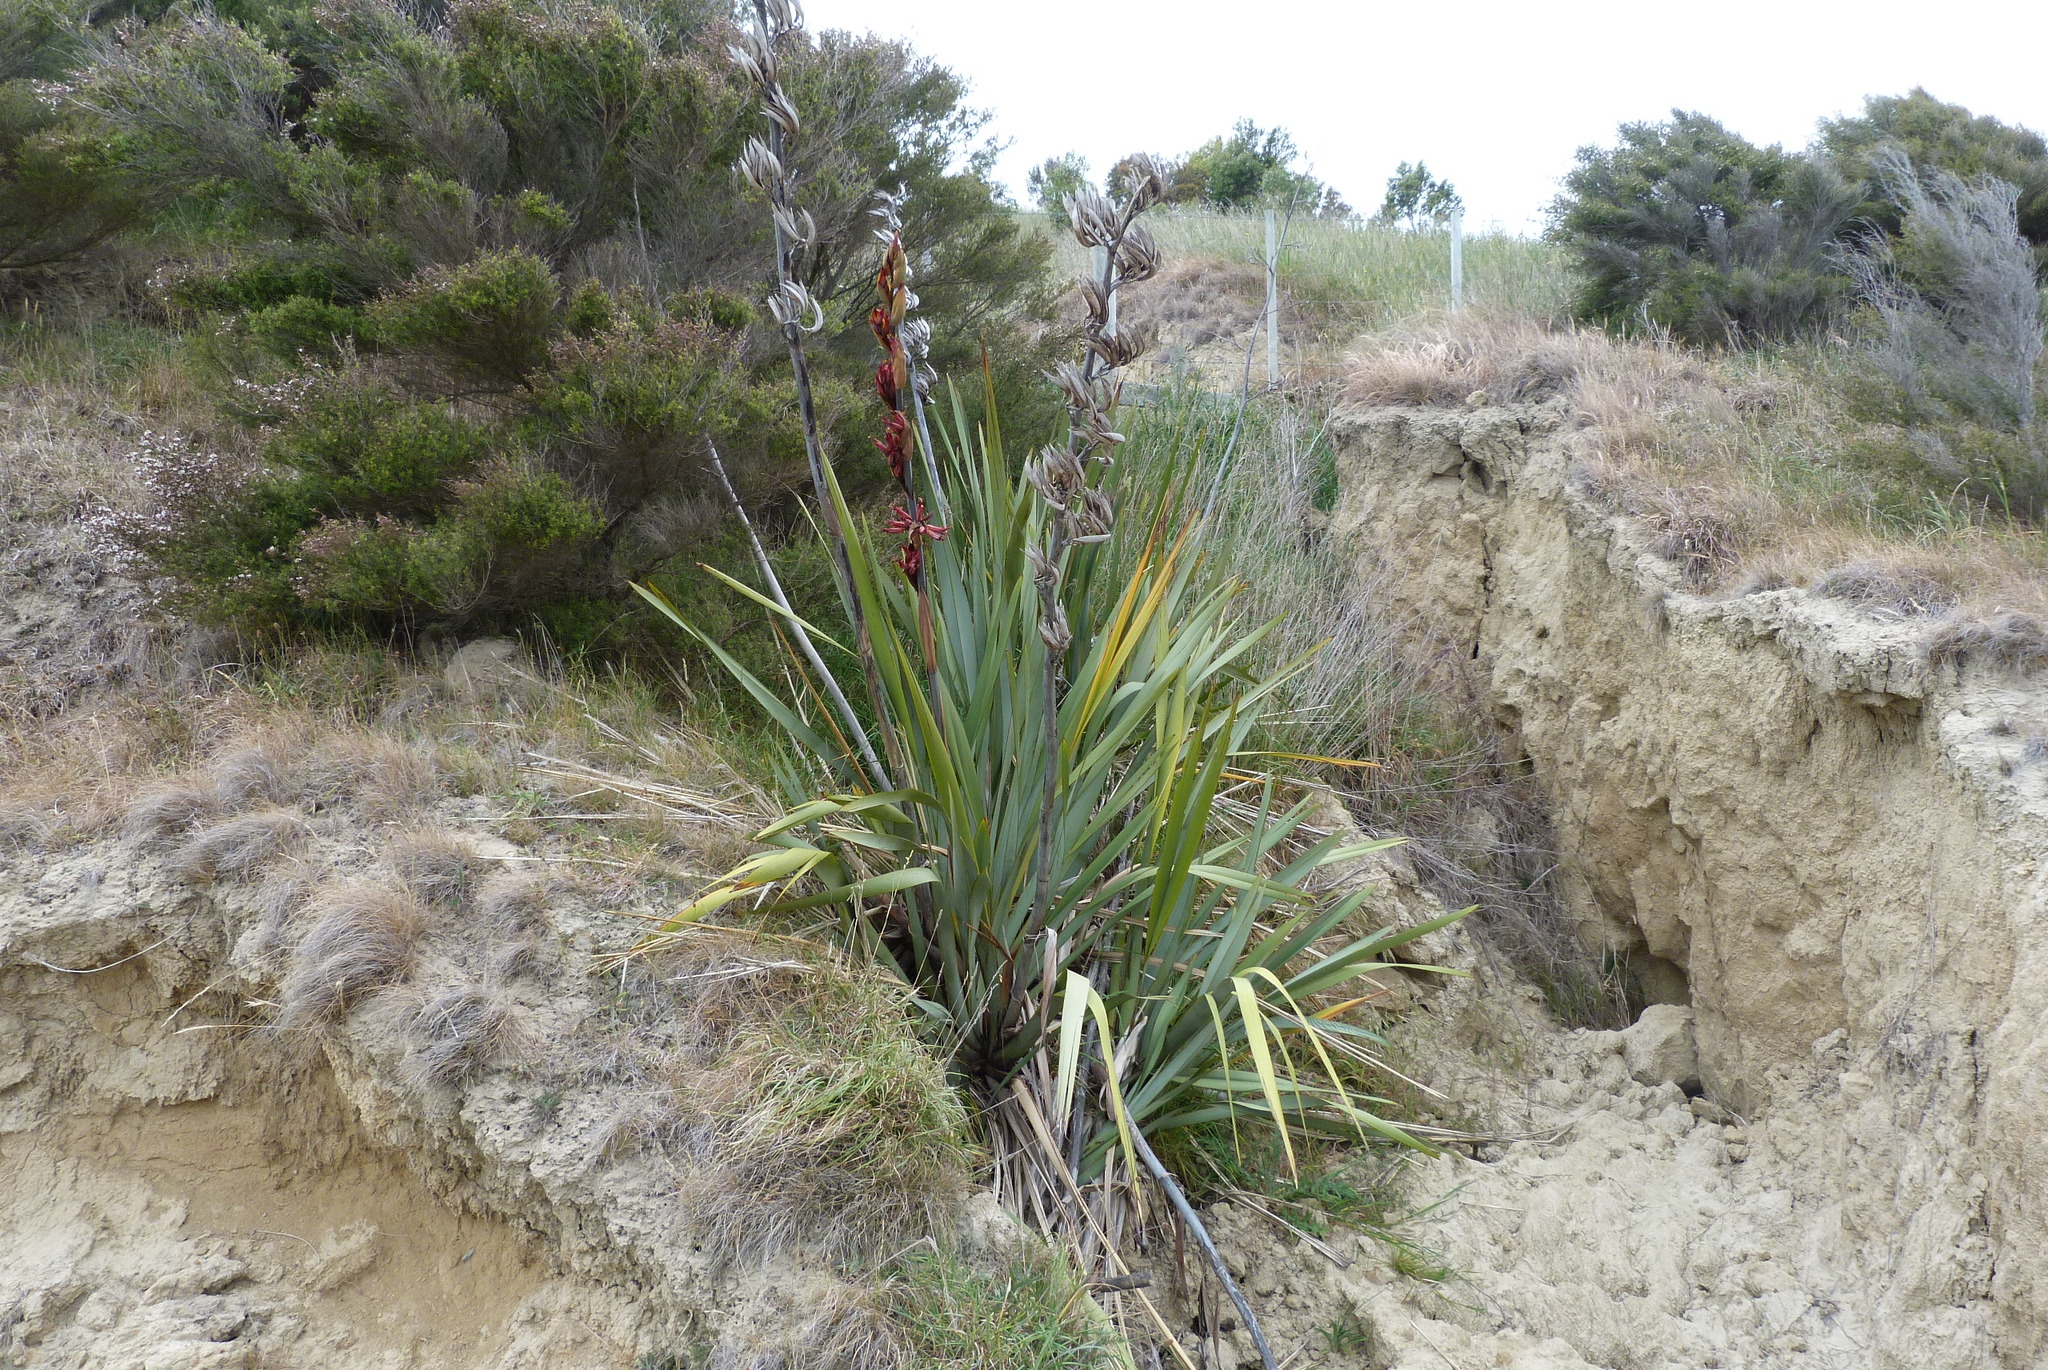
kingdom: Plantae
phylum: Tracheophyta
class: Liliopsida
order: Asparagales
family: Asphodelaceae
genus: Phormium
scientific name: Phormium tenax
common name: New zealand flax
